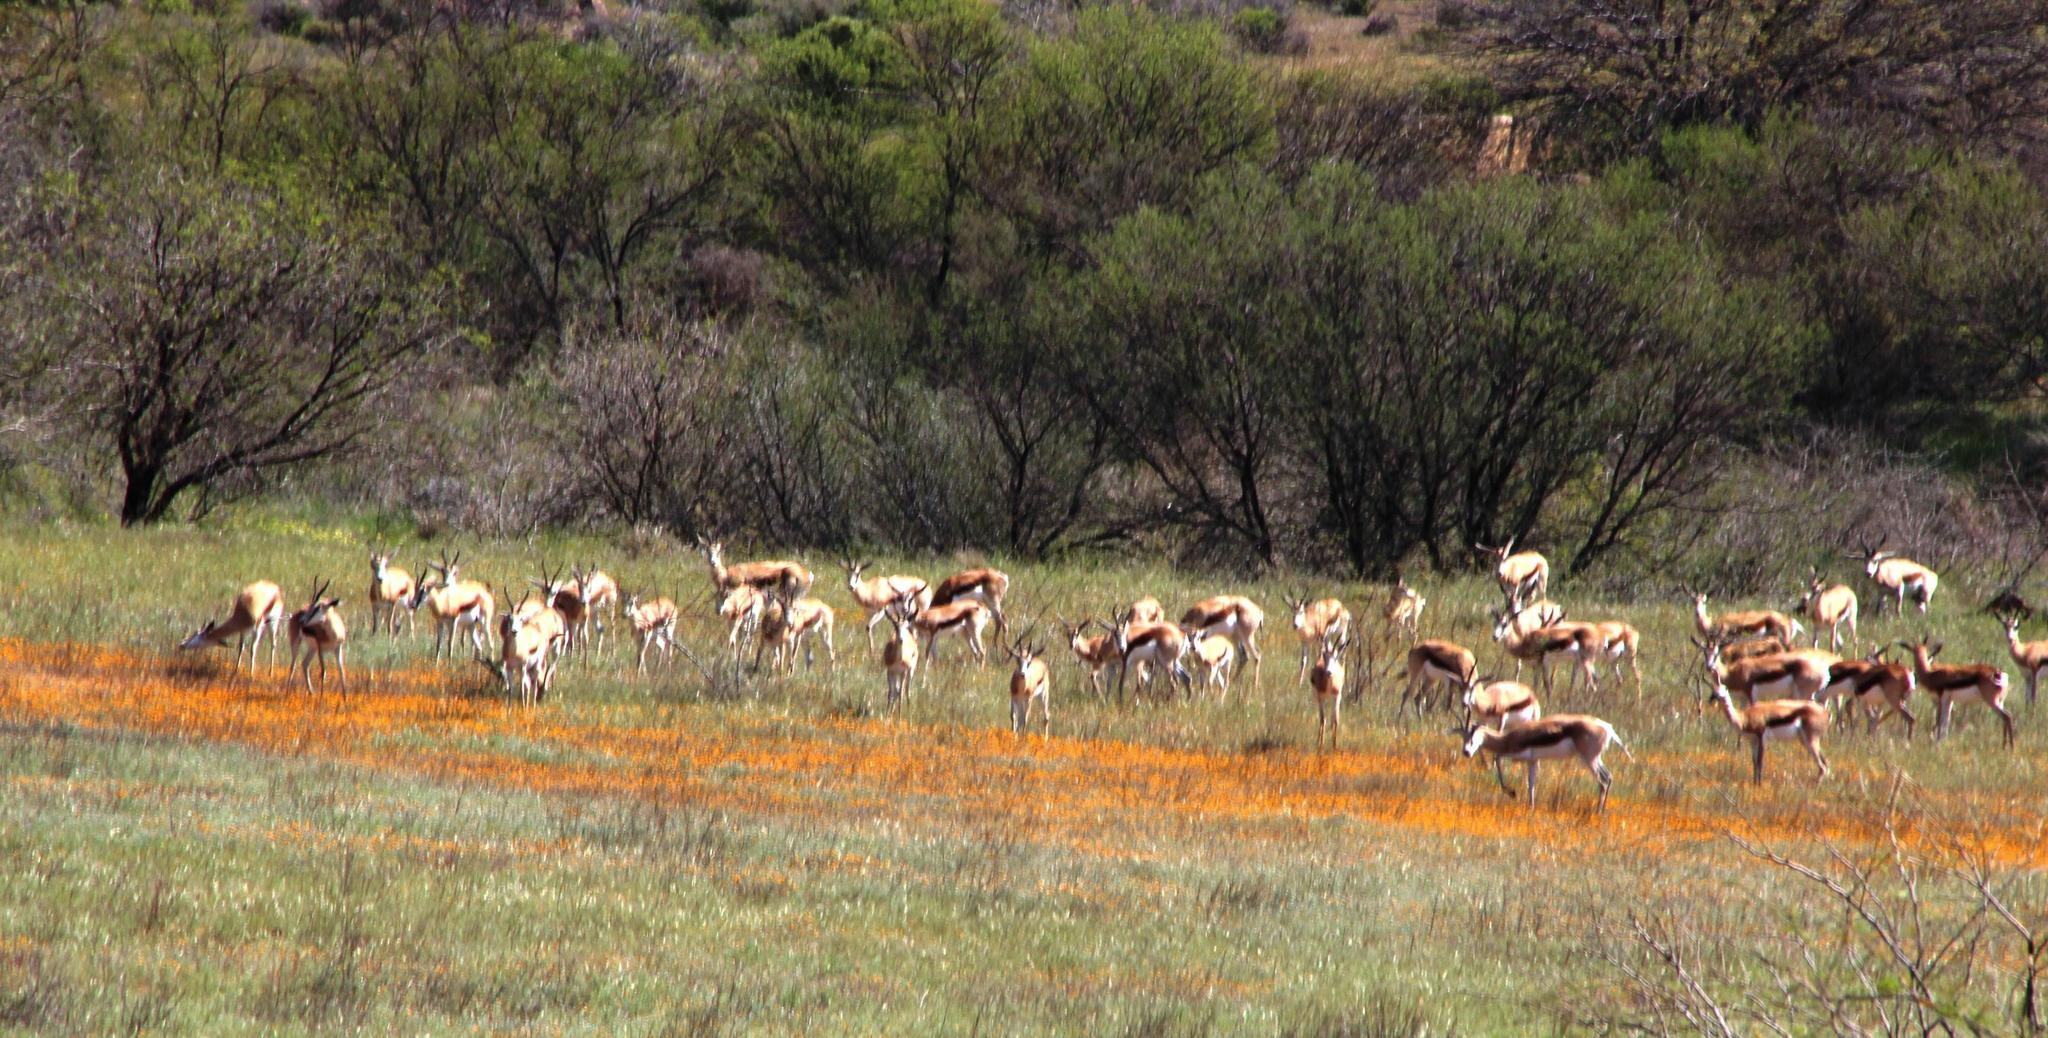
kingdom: Animalia
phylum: Chordata
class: Mammalia
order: Artiodactyla
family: Bovidae
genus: Antidorcas
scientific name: Antidorcas marsupialis
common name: Springbok
